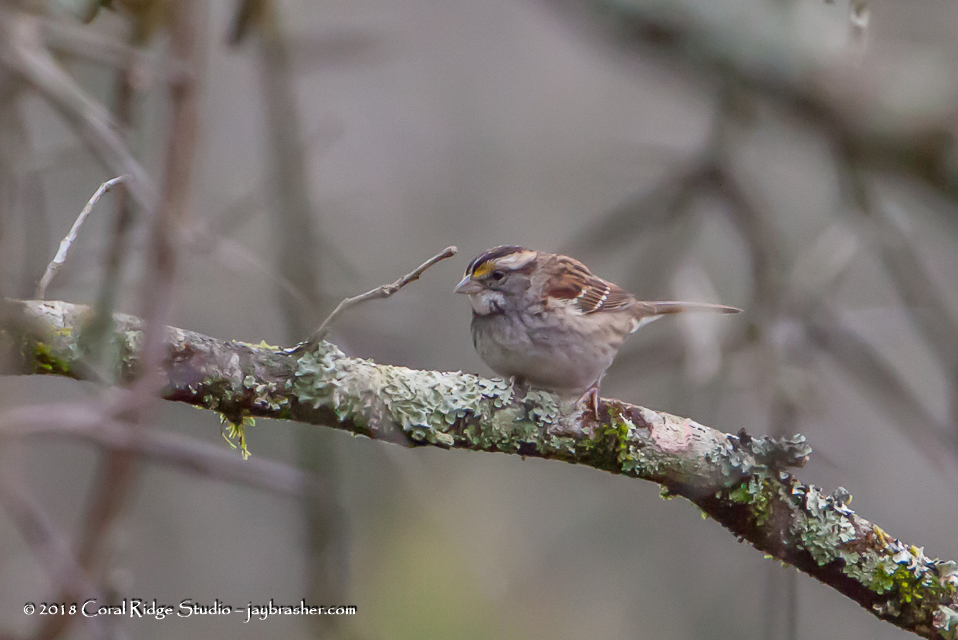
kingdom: Animalia
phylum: Chordata
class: Aves
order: Passeriformes
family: Passerellidae
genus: Zonotrichia
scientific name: Zonotrichia albicollis
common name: White-throated sparrow
